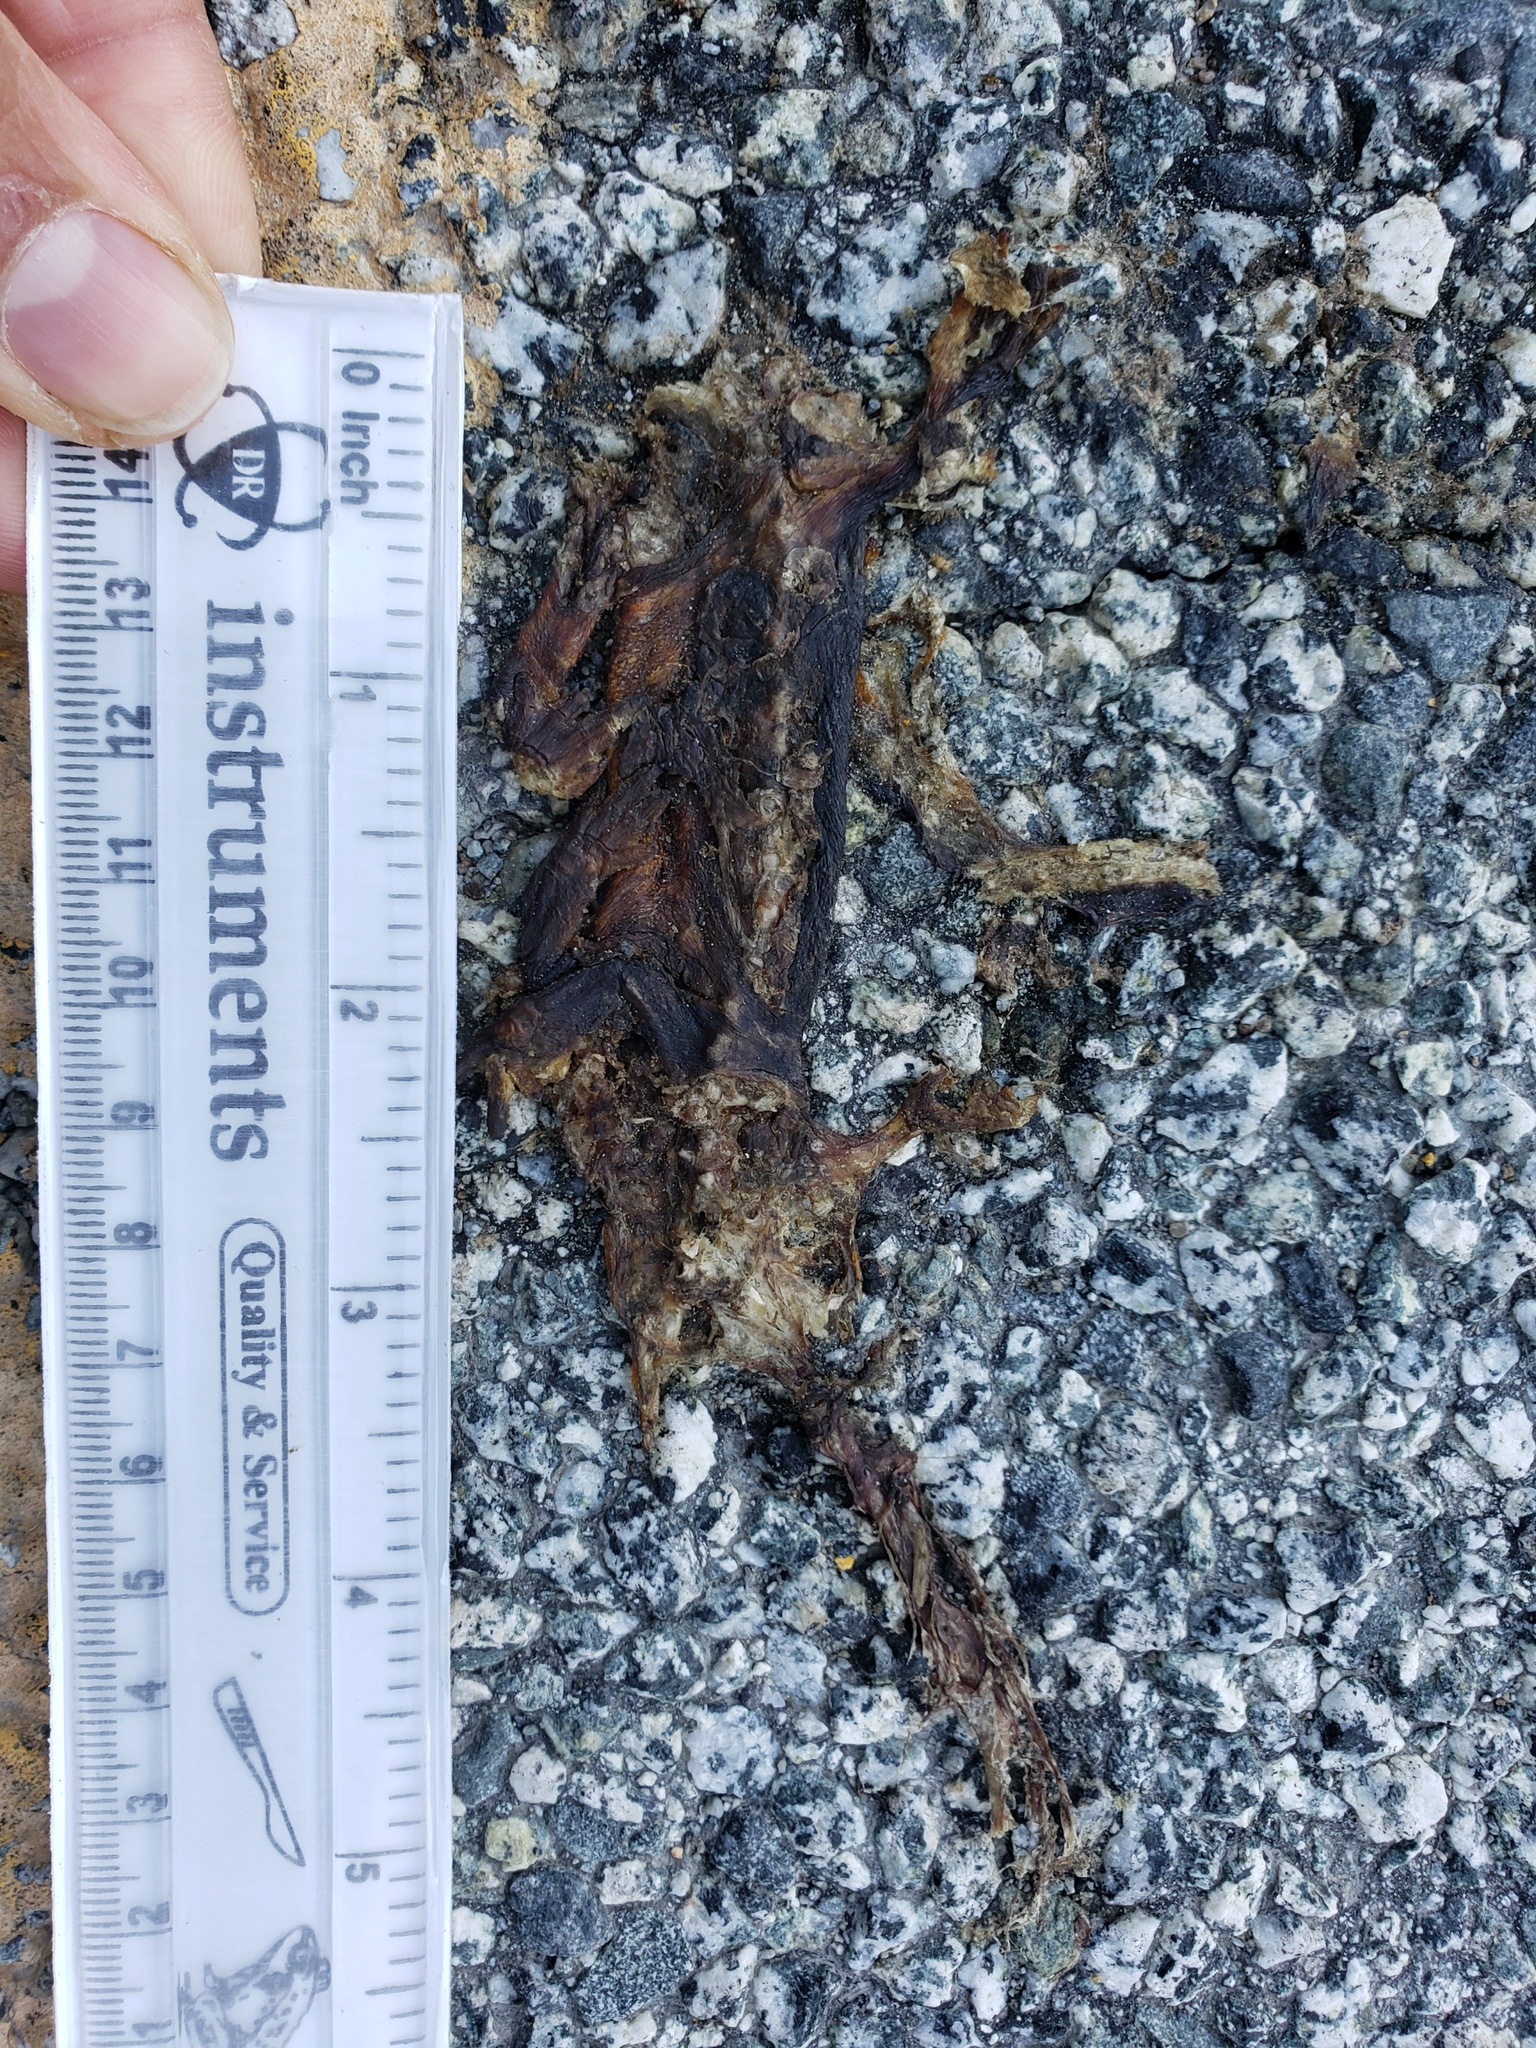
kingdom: Animalia
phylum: Chordata
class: Amphibia
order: Caudata
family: Salamandridae
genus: Taricha
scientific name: Taricha
